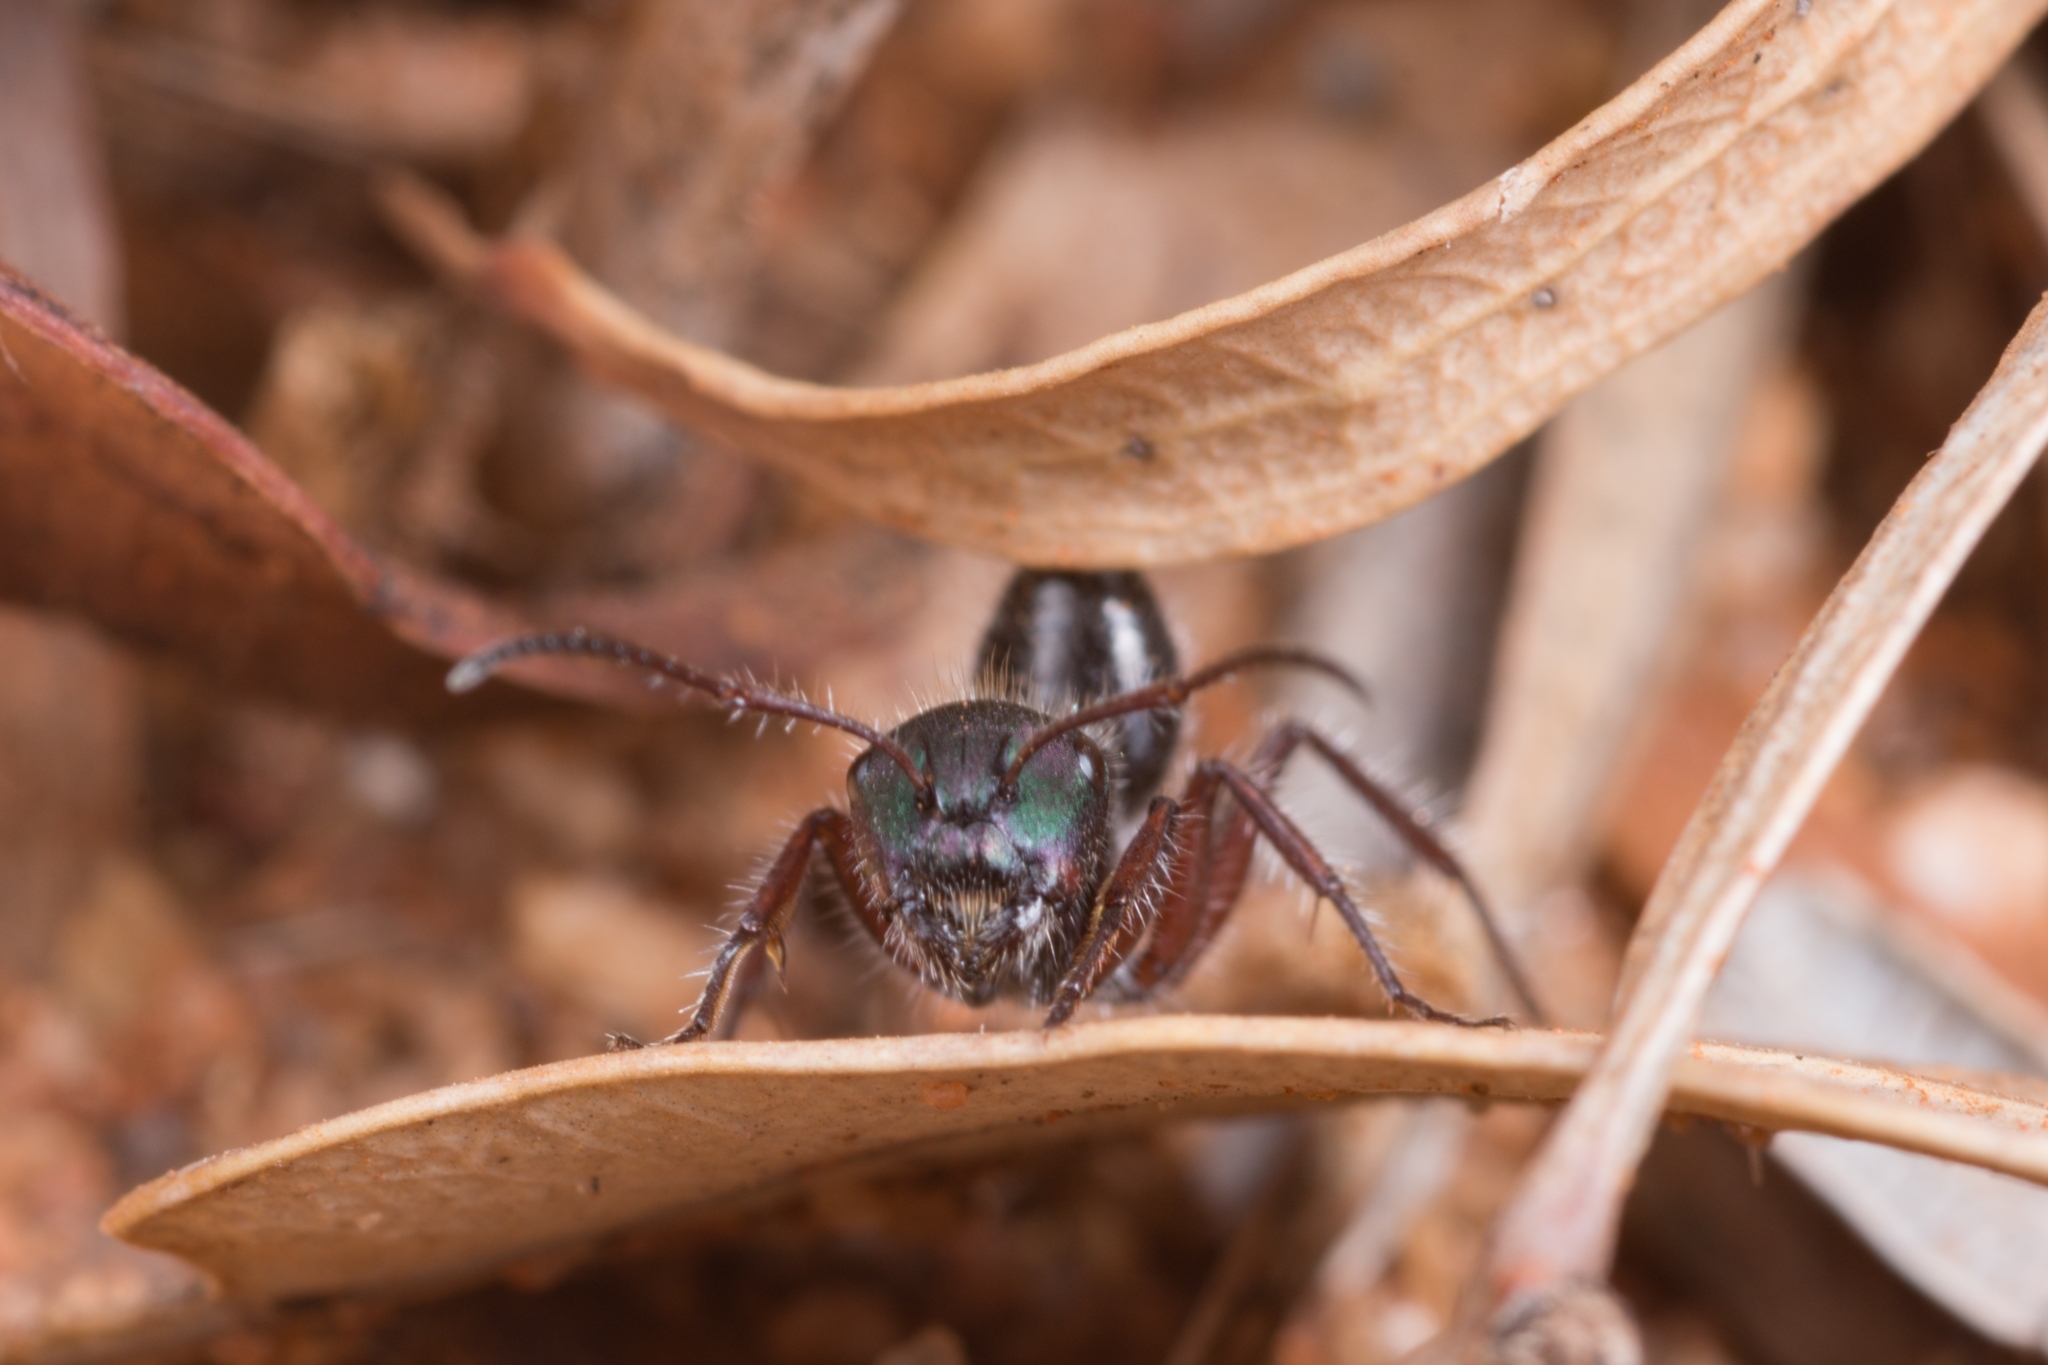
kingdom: Animalia
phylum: Arthropoda
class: Insecta
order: Hymenoptera
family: Formicidae
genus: Calomyrmex
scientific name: Calomyrmex splendidus
